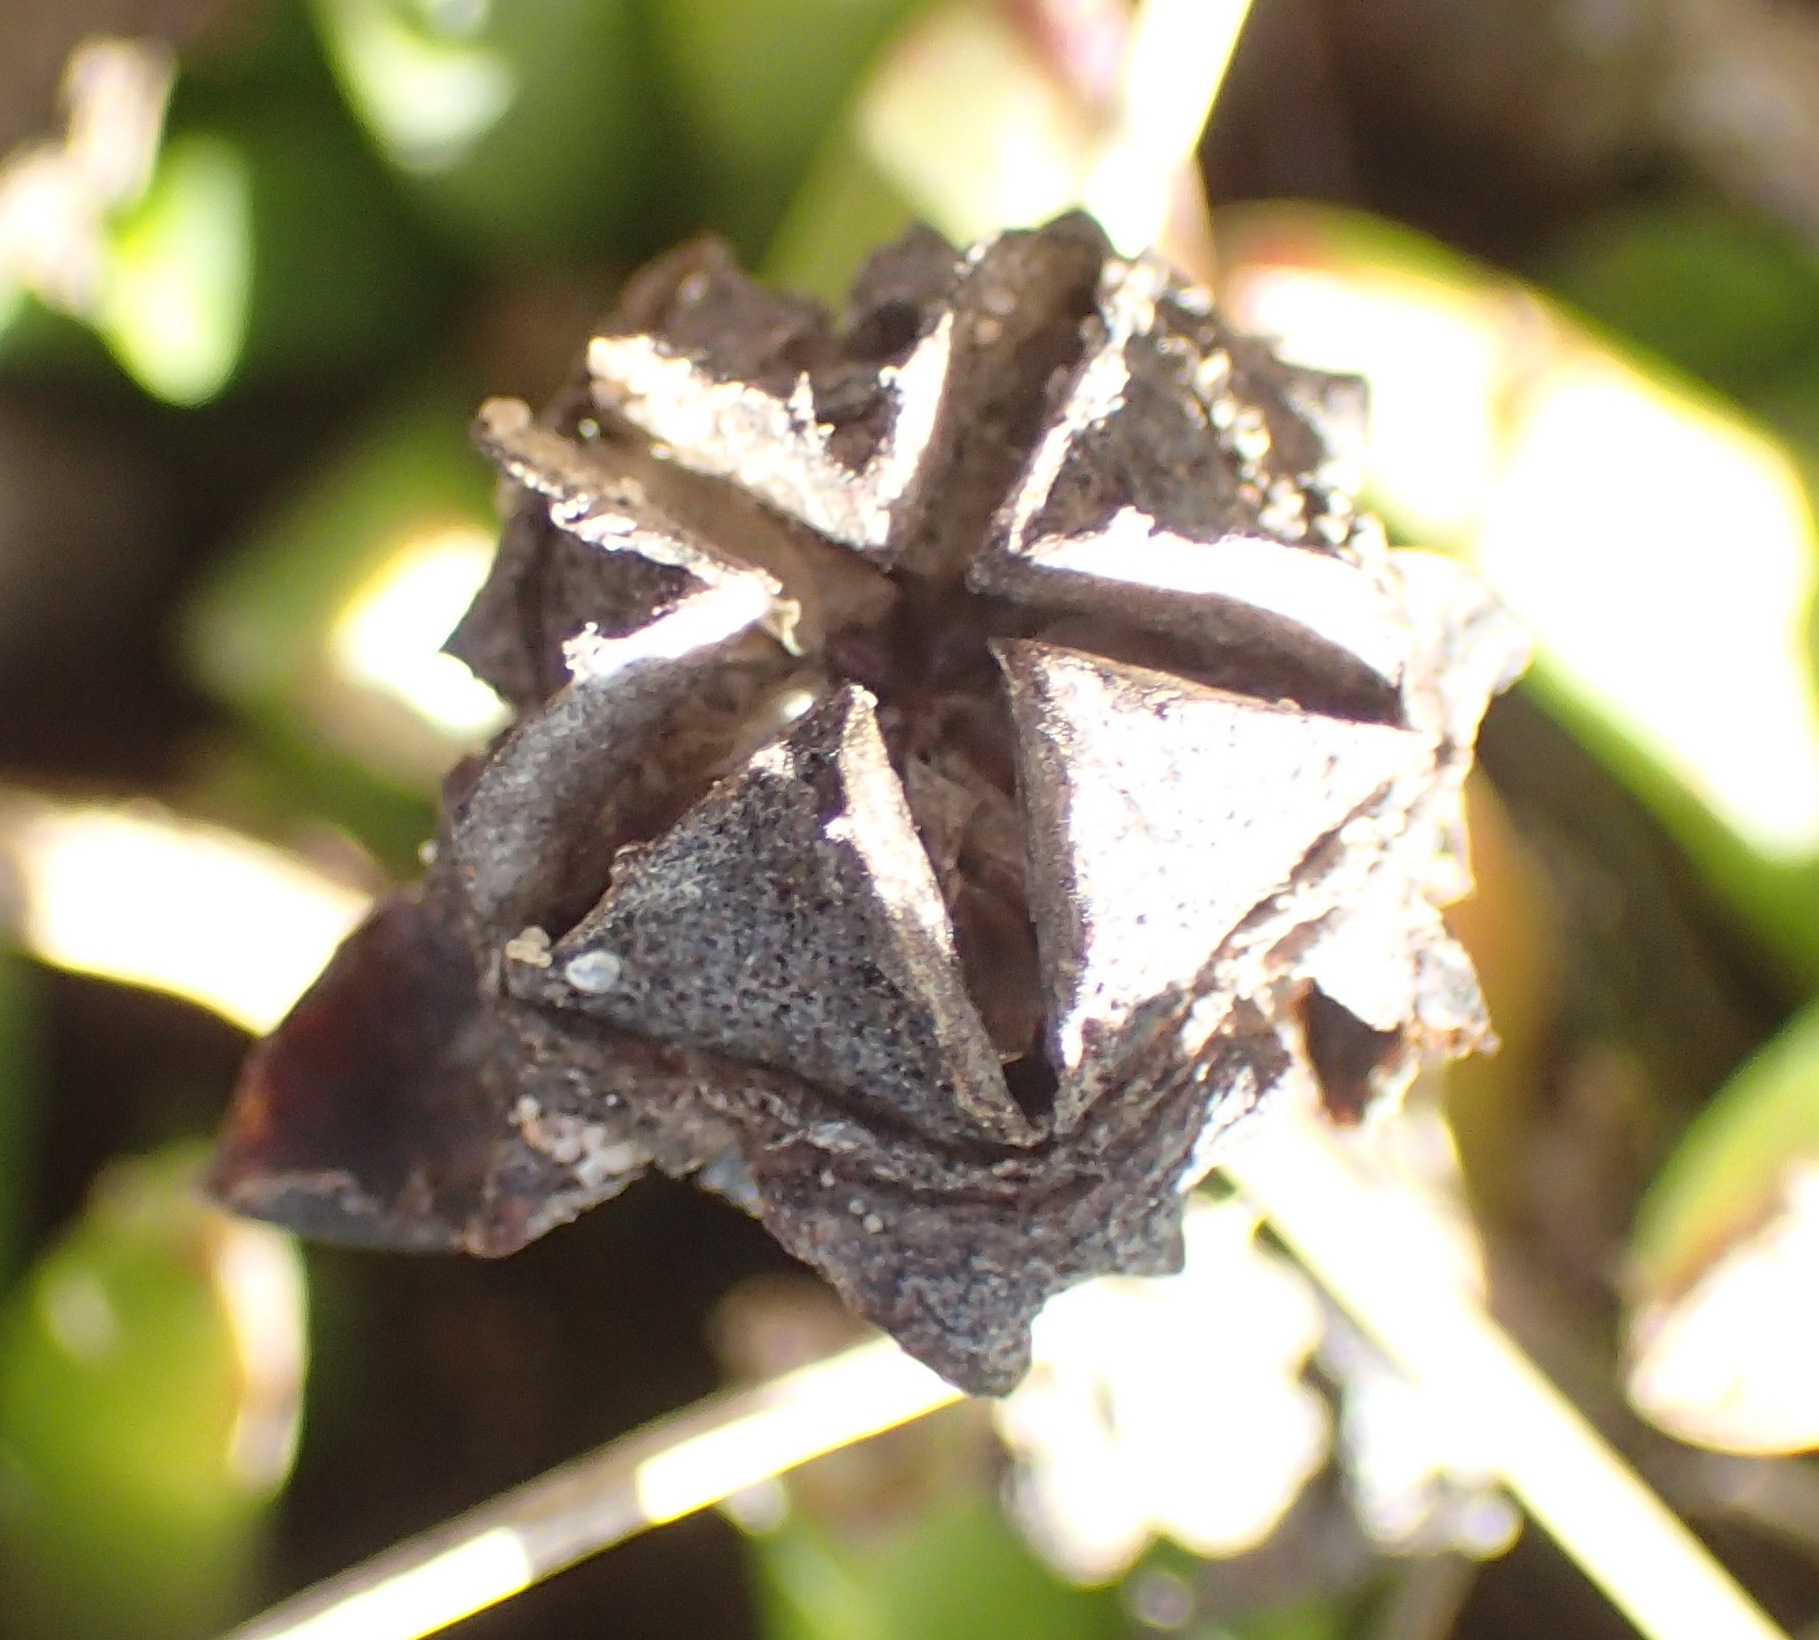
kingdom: Plantae
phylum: Tracheophyta
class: Magnoliopsida
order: Caryophyllales
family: Aizoaceae
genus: Ruschia
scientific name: Ruschia duthiae
